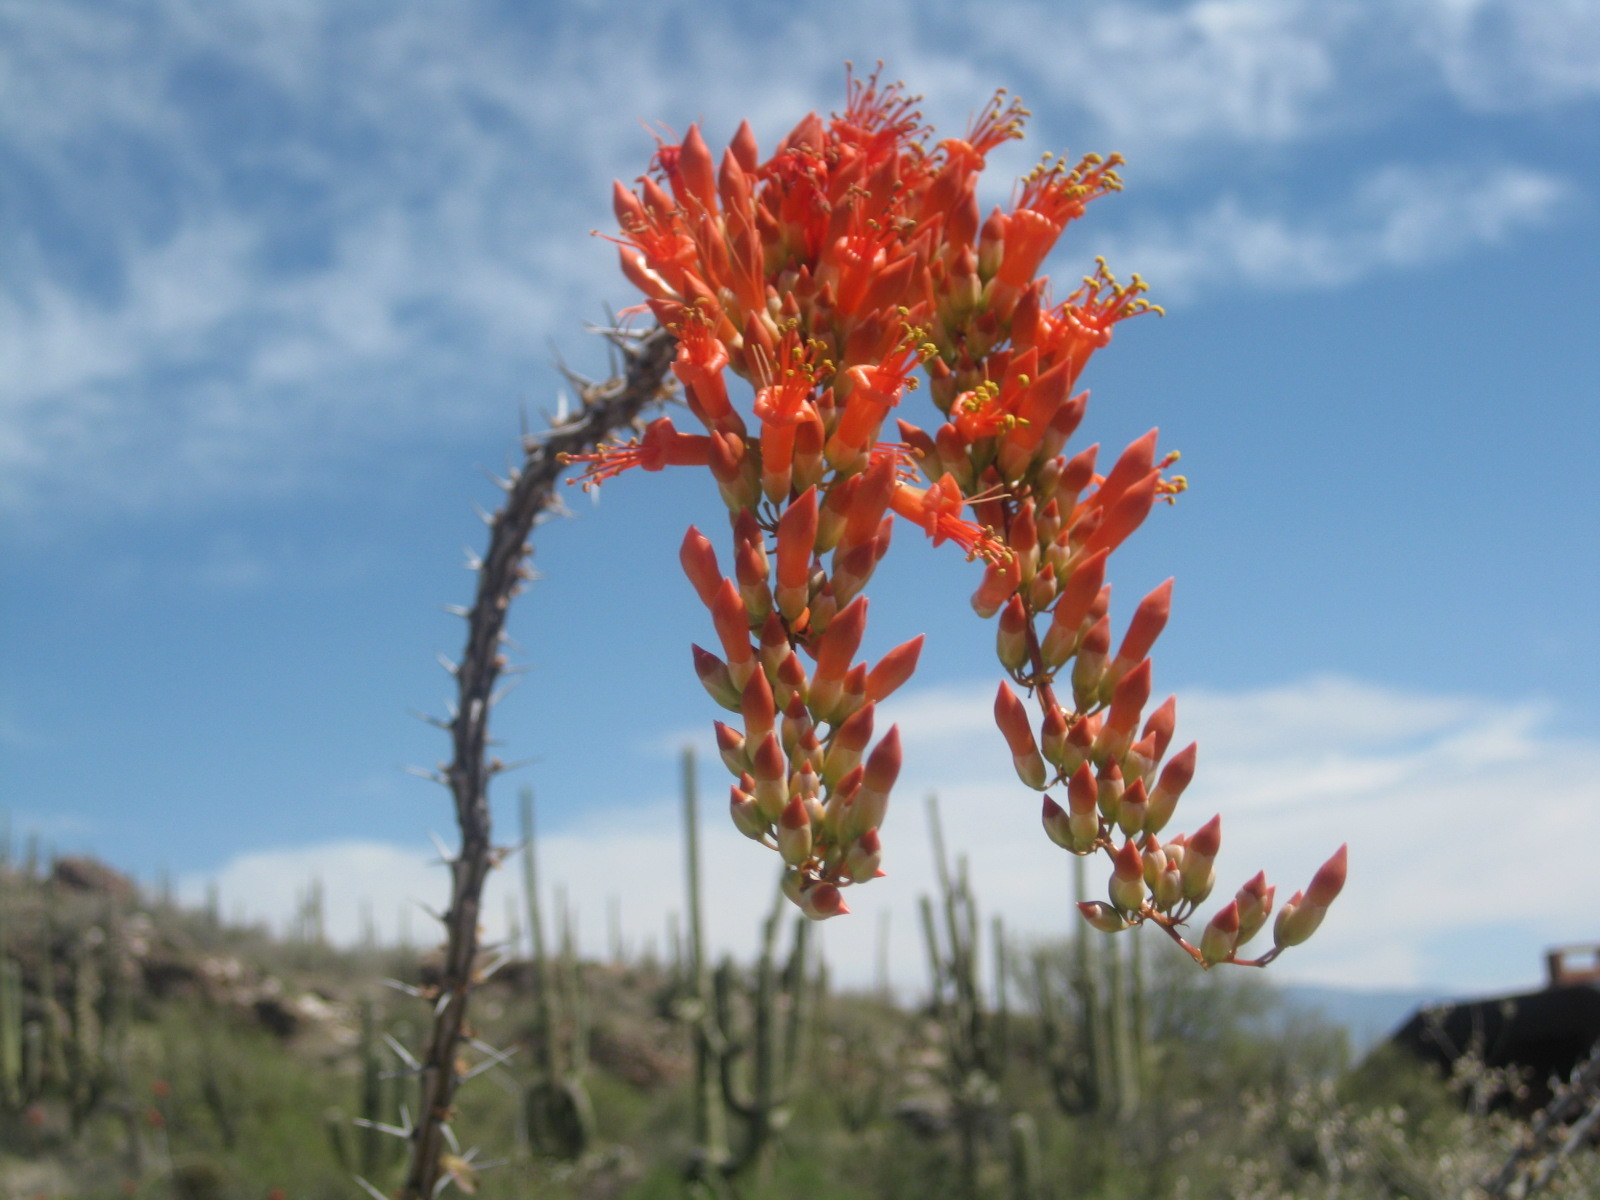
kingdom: Plantae
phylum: Tracheophyta
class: Magnoliopsida
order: Ericales
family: Fouquieriaceae
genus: Fouquieria
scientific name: Fouquieria splendens
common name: Vine-cactus
